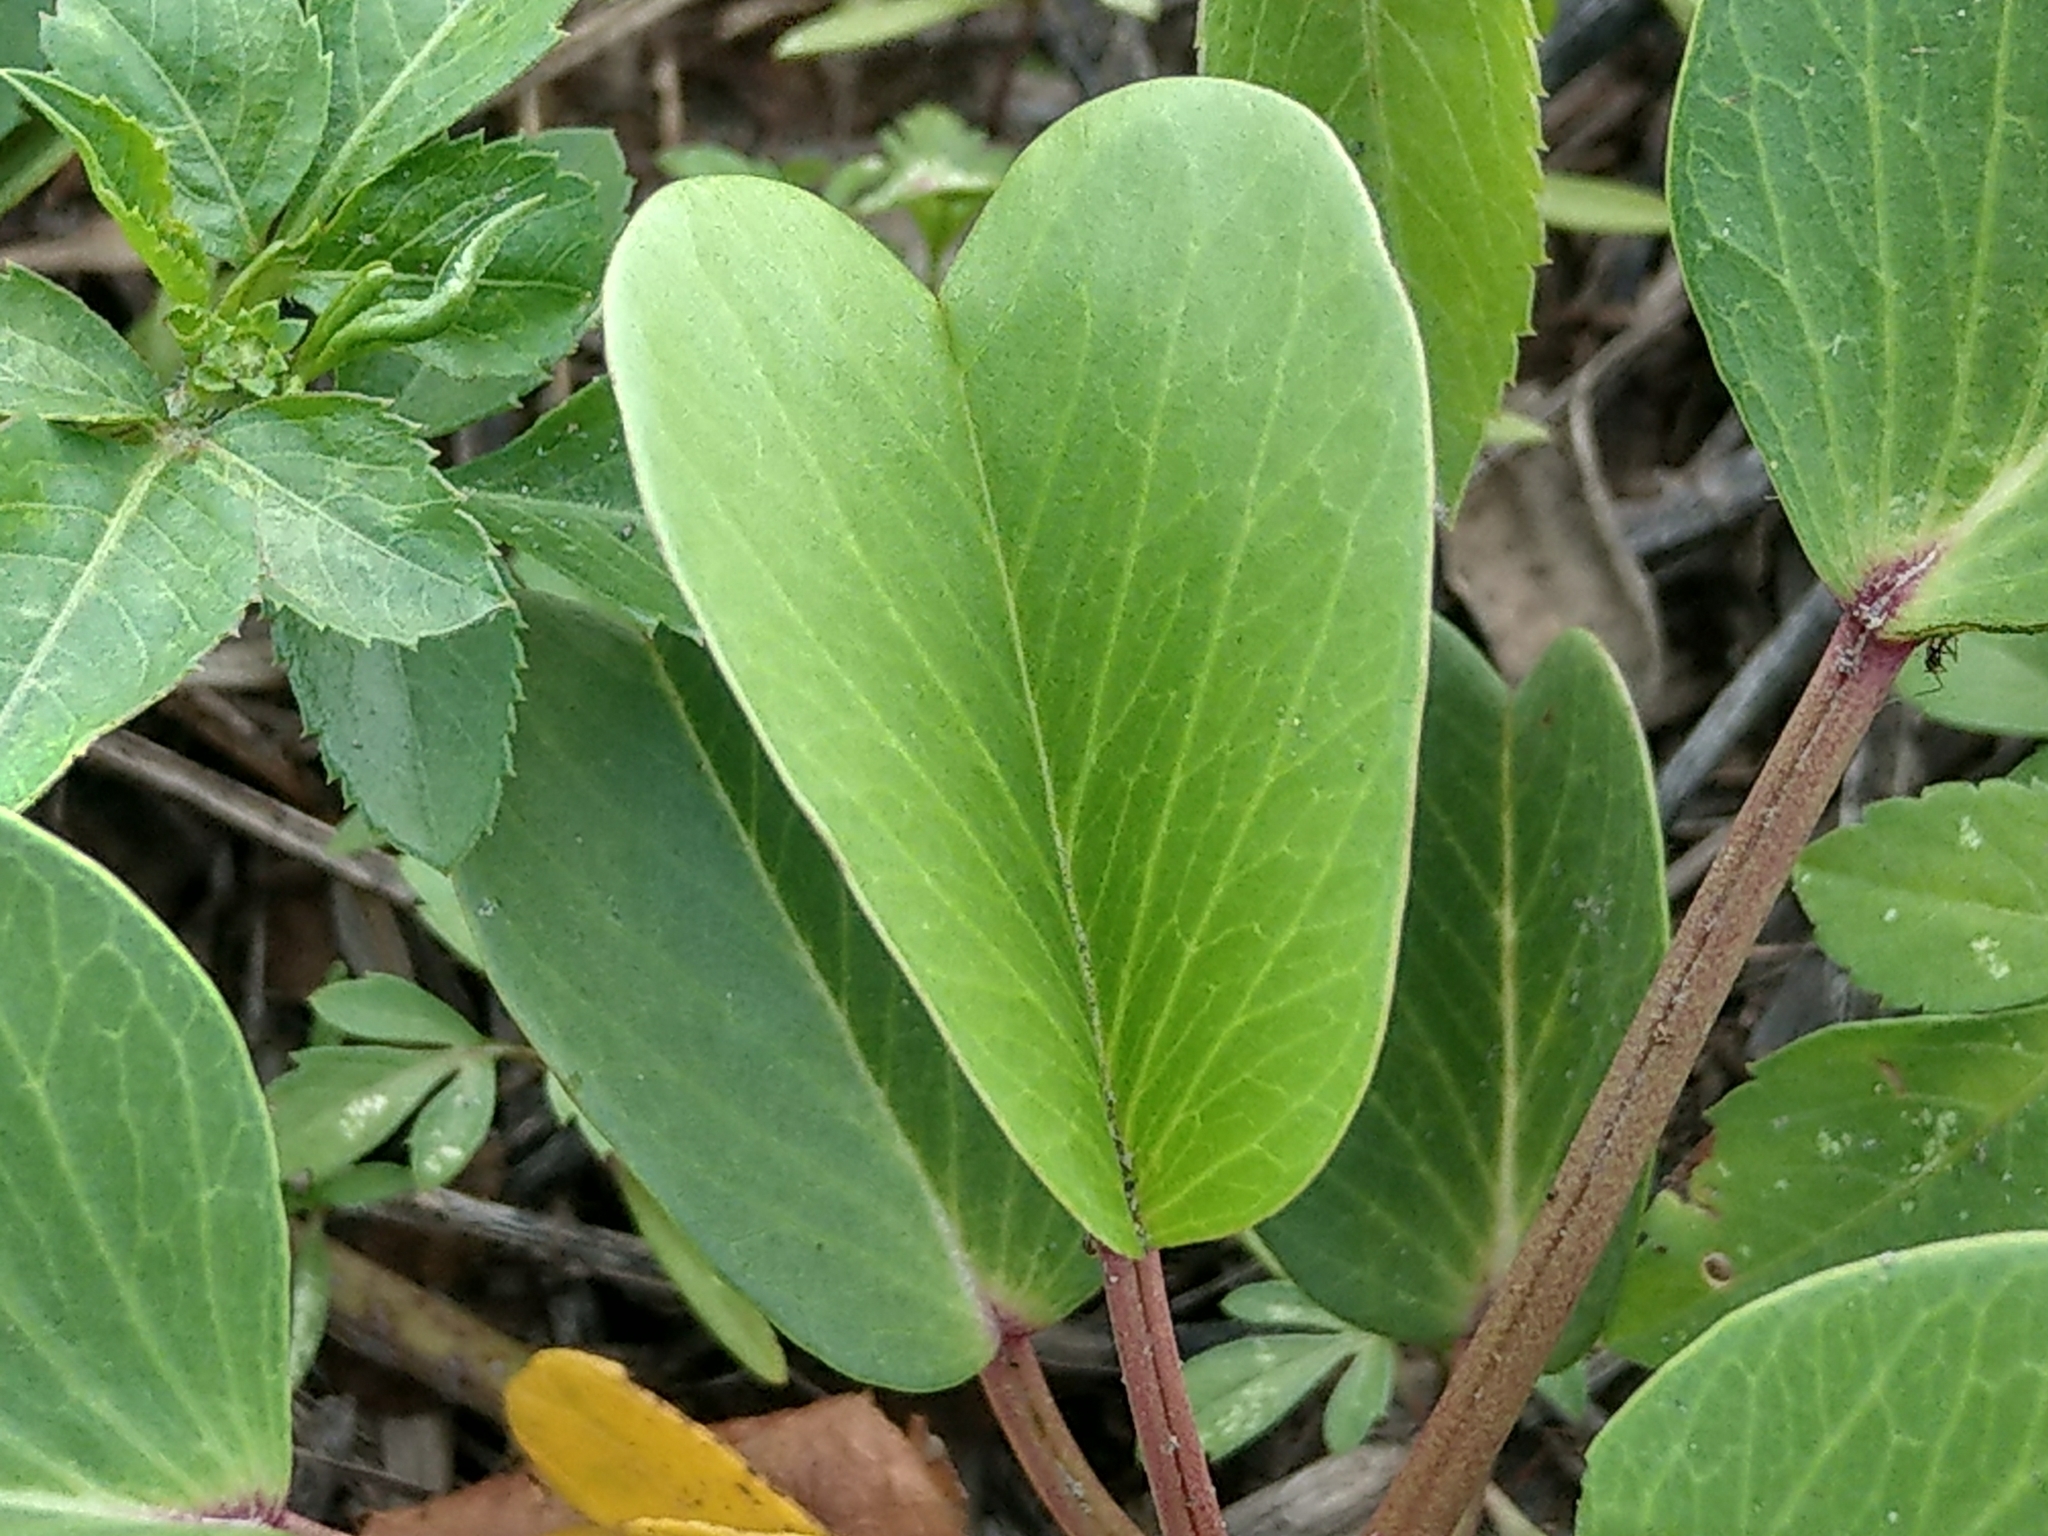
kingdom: Plantae
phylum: Tracheophyta
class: Magnoliopsida
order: Solanales
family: Convolvulaceae
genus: Ipomoea
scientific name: Ipomoea pes-caprae
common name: Beach morning glory
